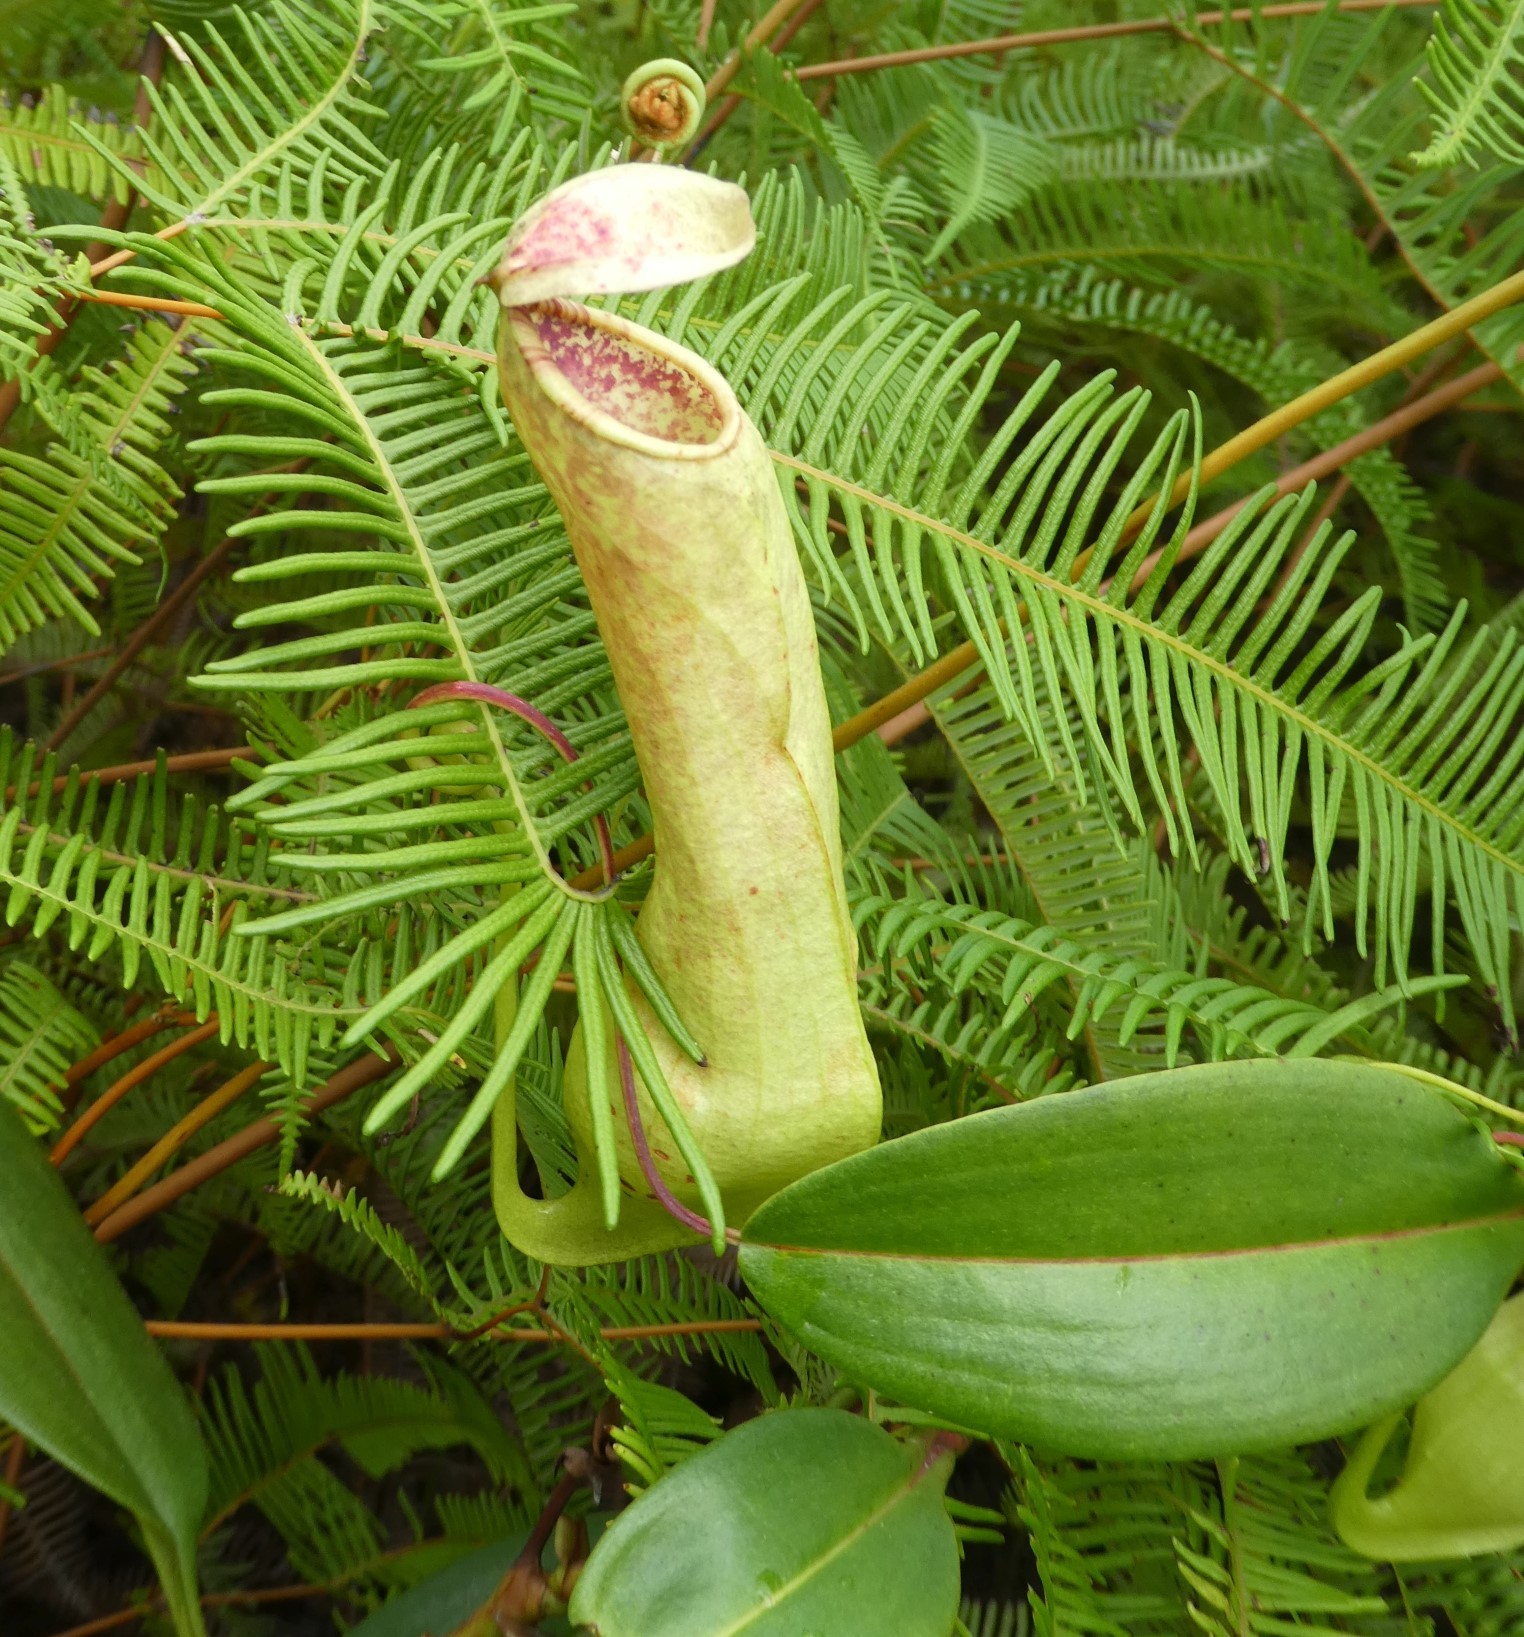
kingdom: Plantae
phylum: Tracheophyta
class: Magnoliopsida
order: Caryophyllales
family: Nepenthaceae
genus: Nepenthes
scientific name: Nepenthes danseri
